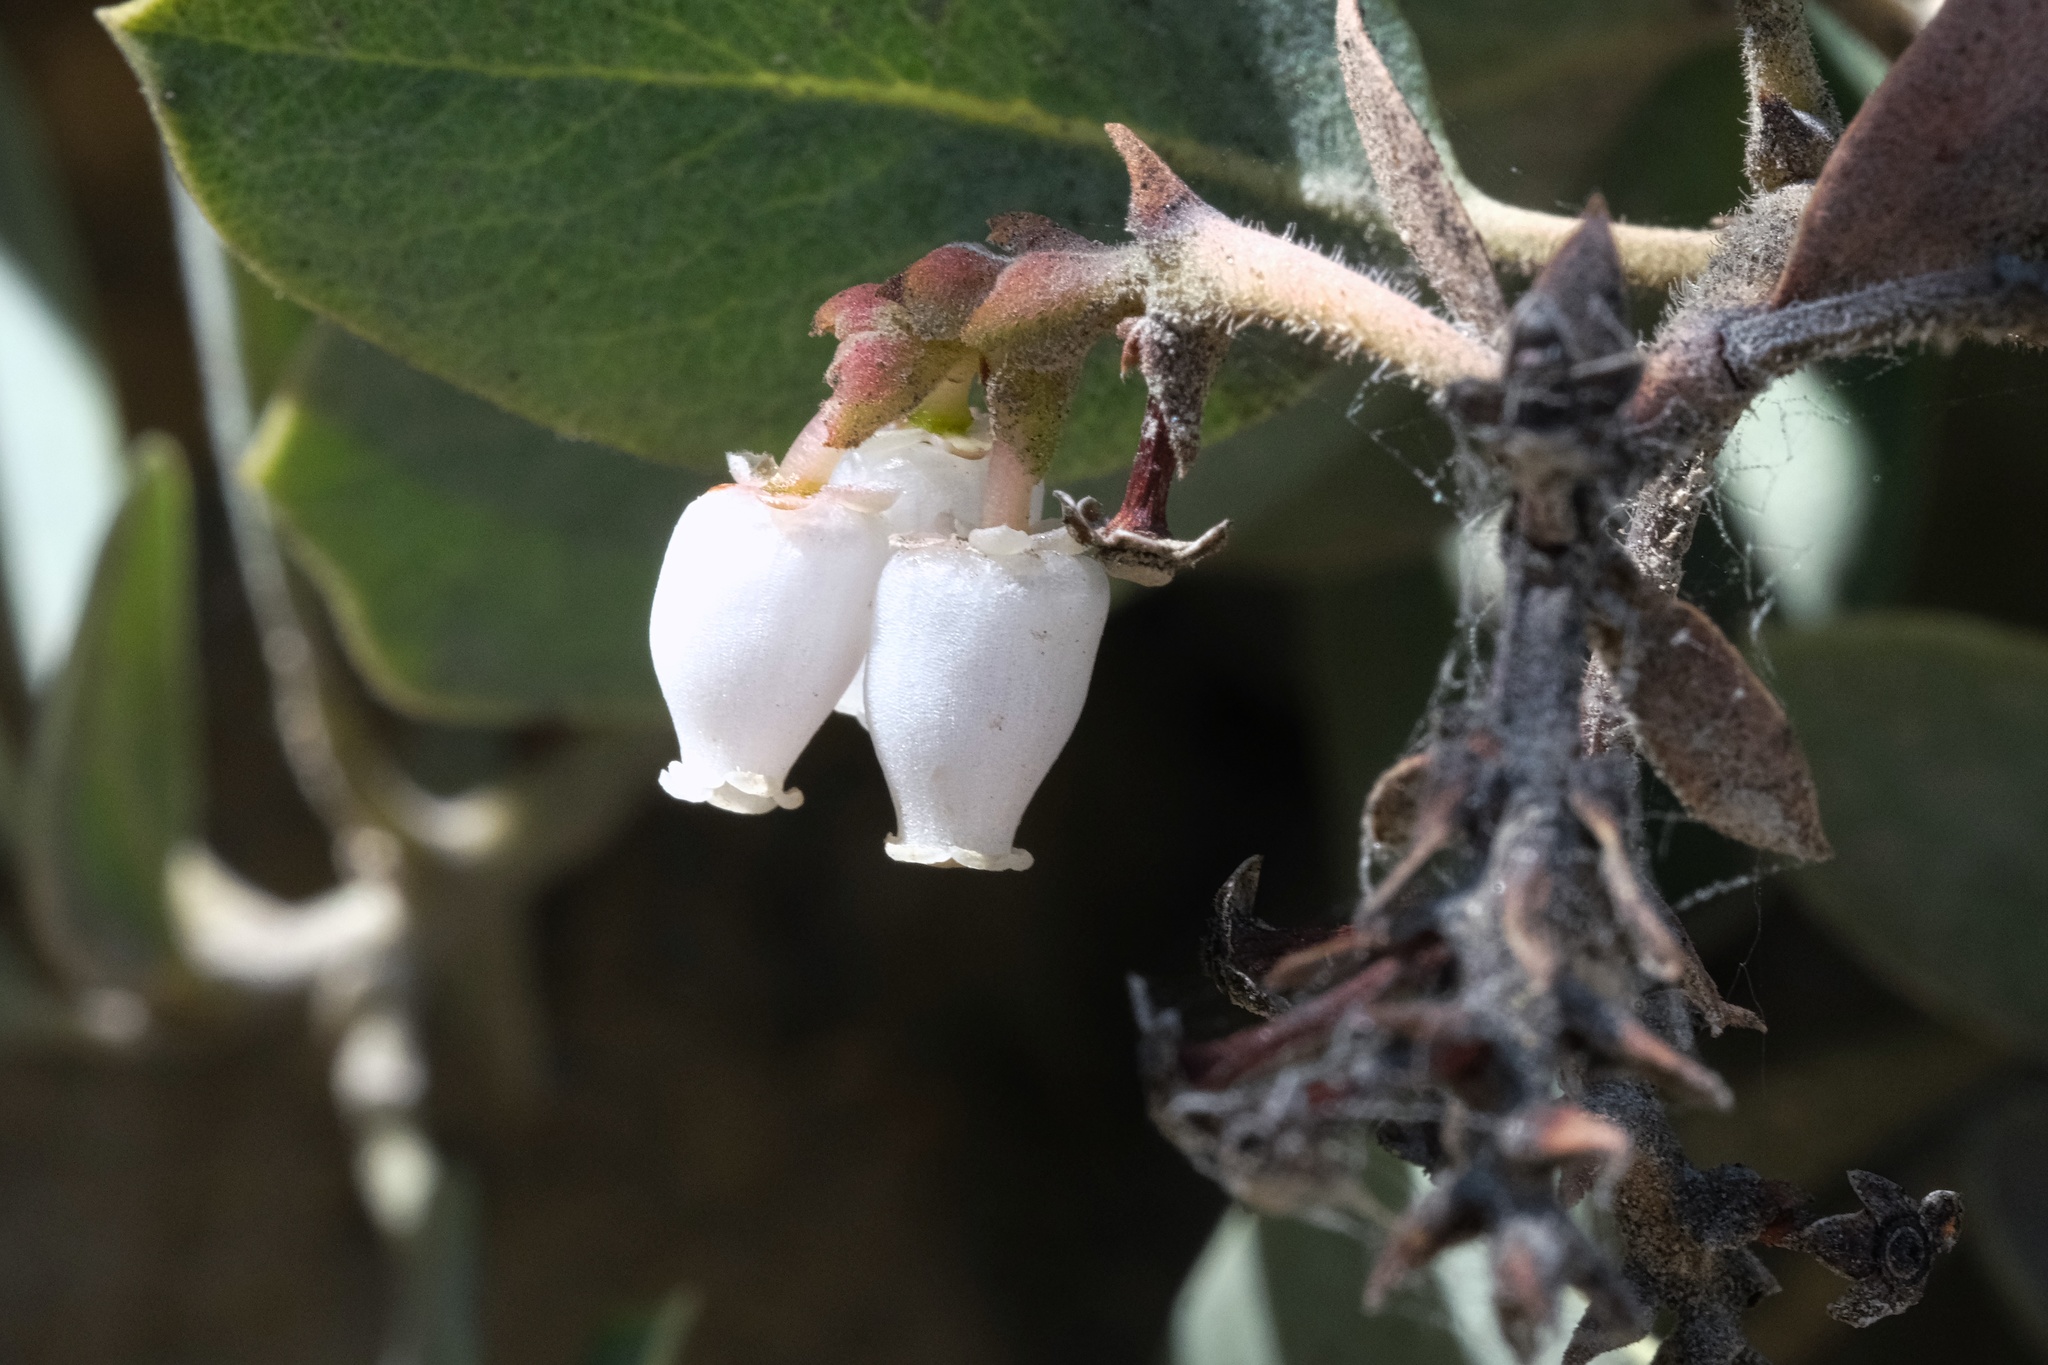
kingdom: Plantae
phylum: Tracheophyta
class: Magnoliopsida
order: Ericales
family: Ericaceae
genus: Arctostaphylos
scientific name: Arctostaphylos glandulosa
